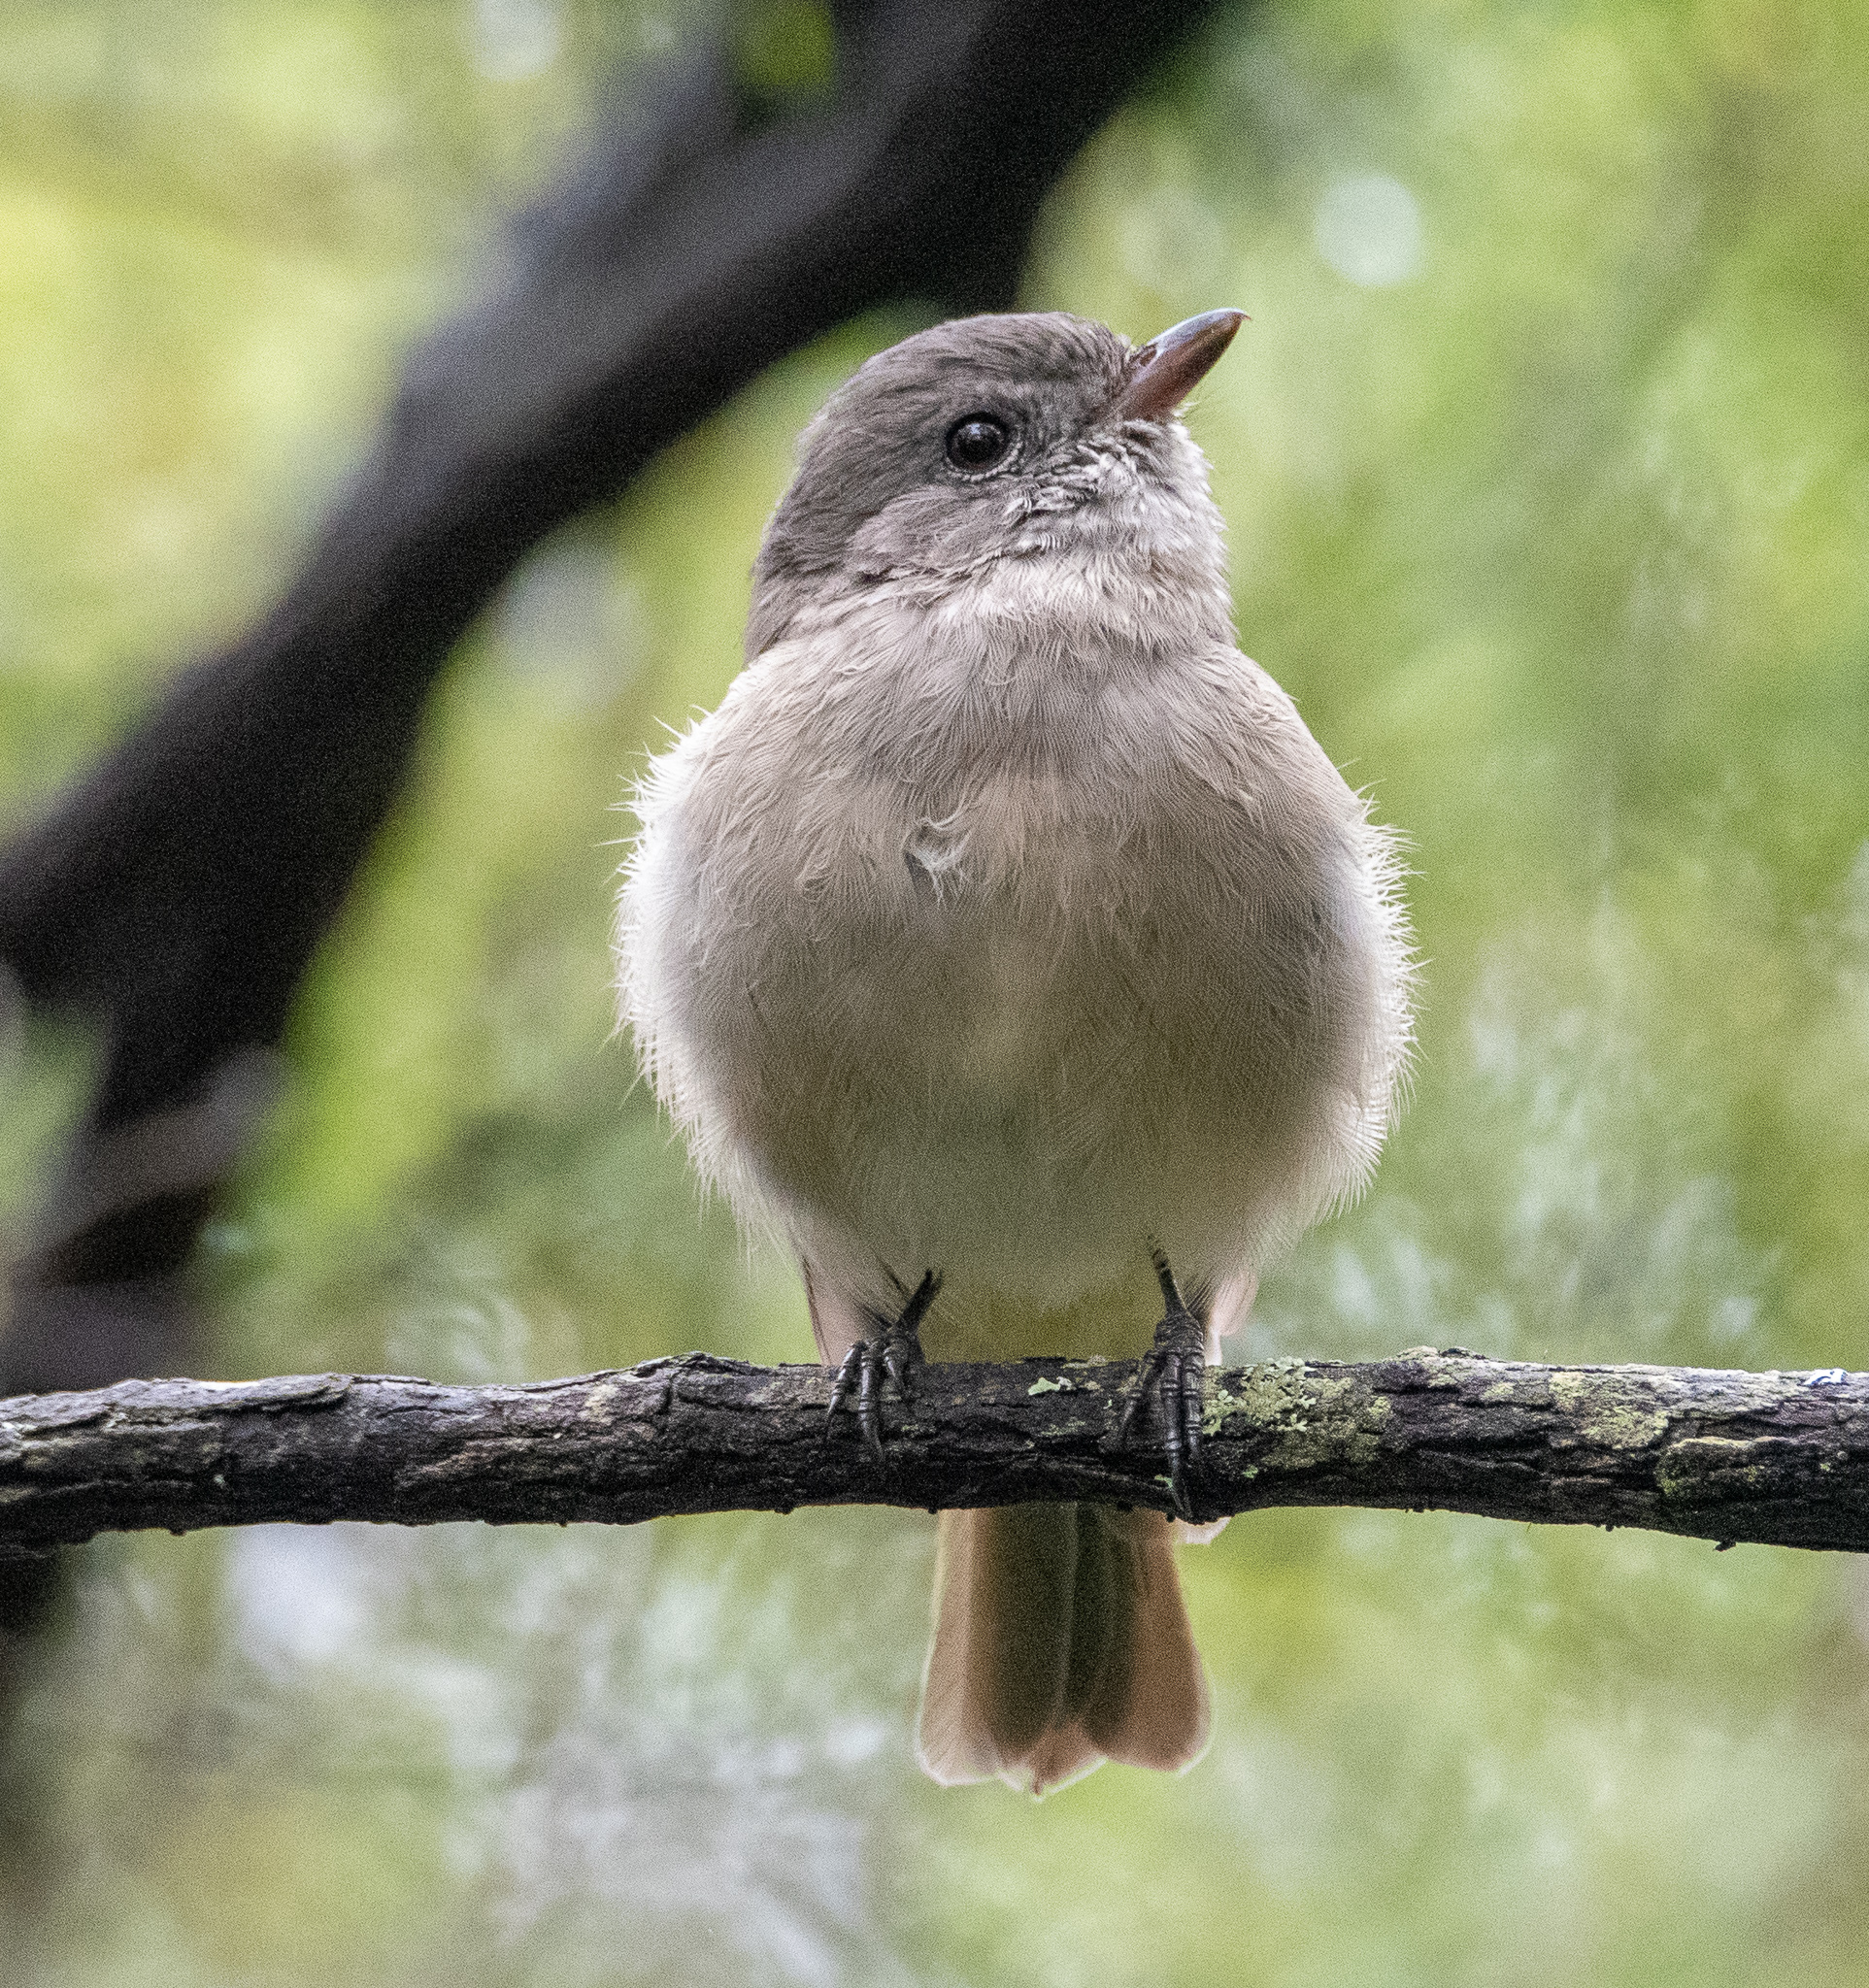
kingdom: Animalia
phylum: Chordata
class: Aves
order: Passeriformes
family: Pachycephalidae
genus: Pachycephala
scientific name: Pachycephala pectoralis
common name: Australian golden whistler
